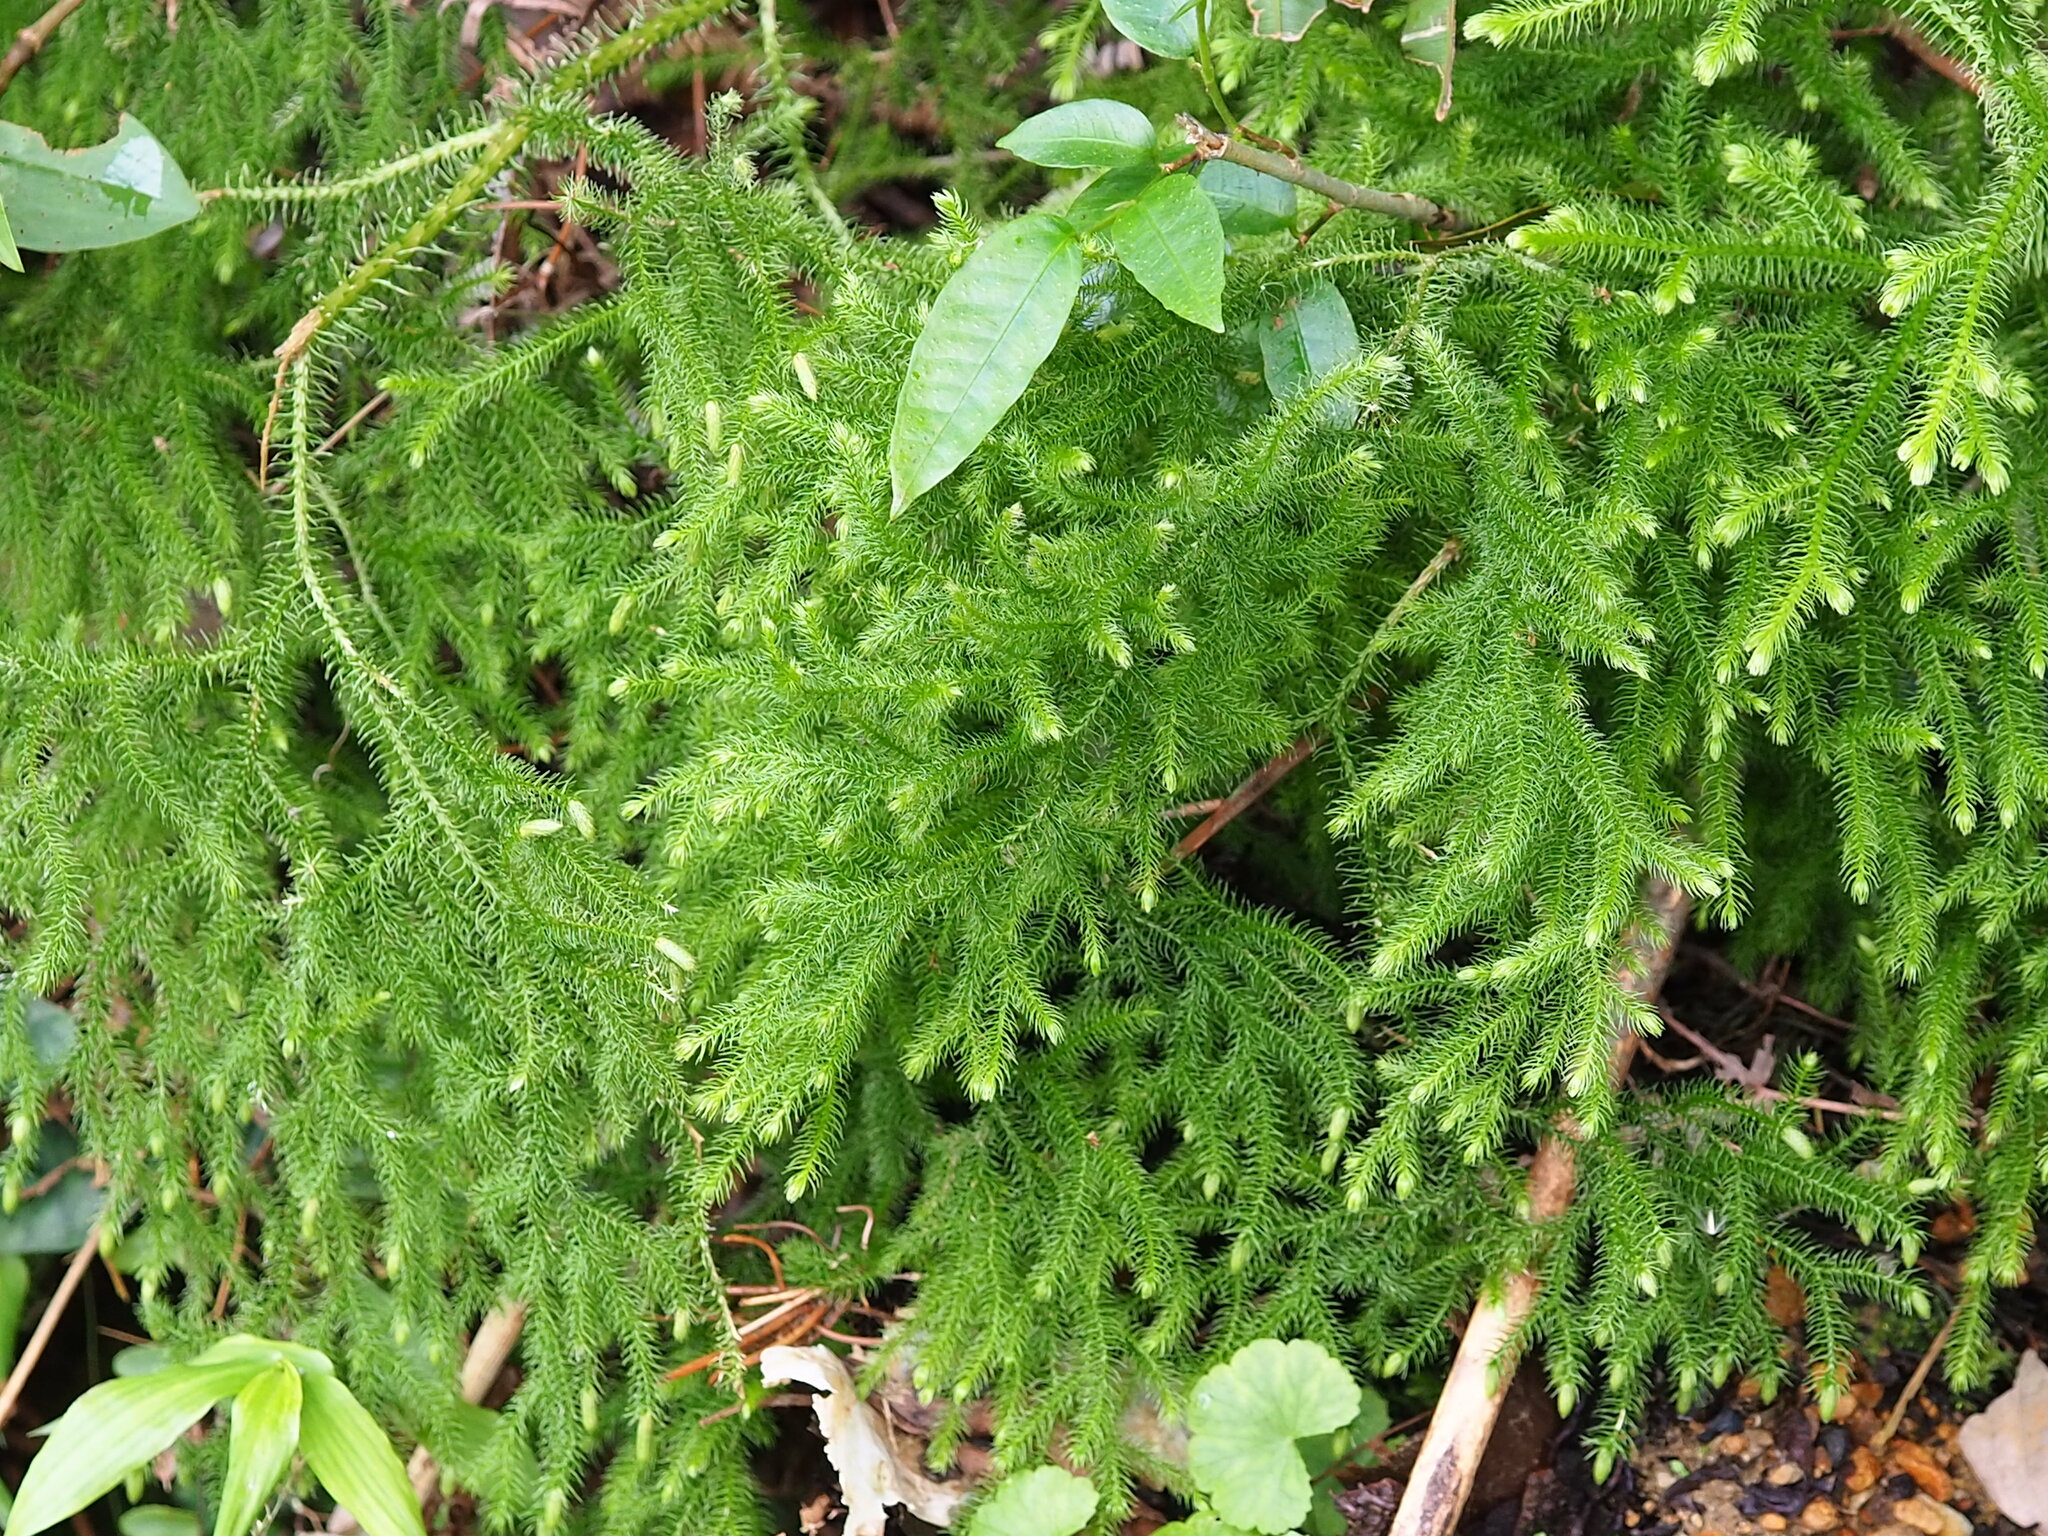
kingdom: Plantae
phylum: Tracheophyta
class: Lycopodiopsida
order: Lycopodiales
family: Lycopodiaceae
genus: Palhinhaea
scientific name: Palhinhaea cernua
